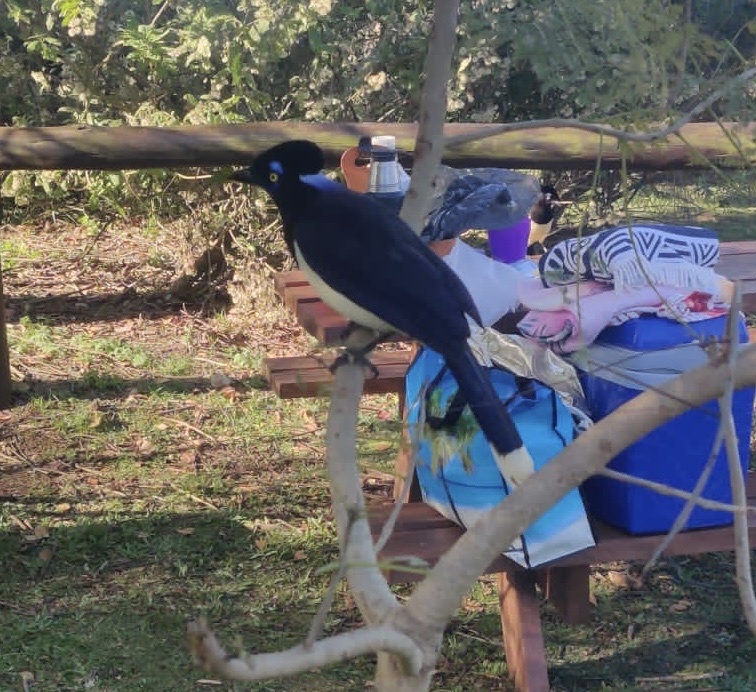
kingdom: Animalia
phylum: Chordata
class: Aves
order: Passeriformes
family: Corvidae
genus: Cyanocorax
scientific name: Cyanocorax chrysops
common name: Plush-crested jay
